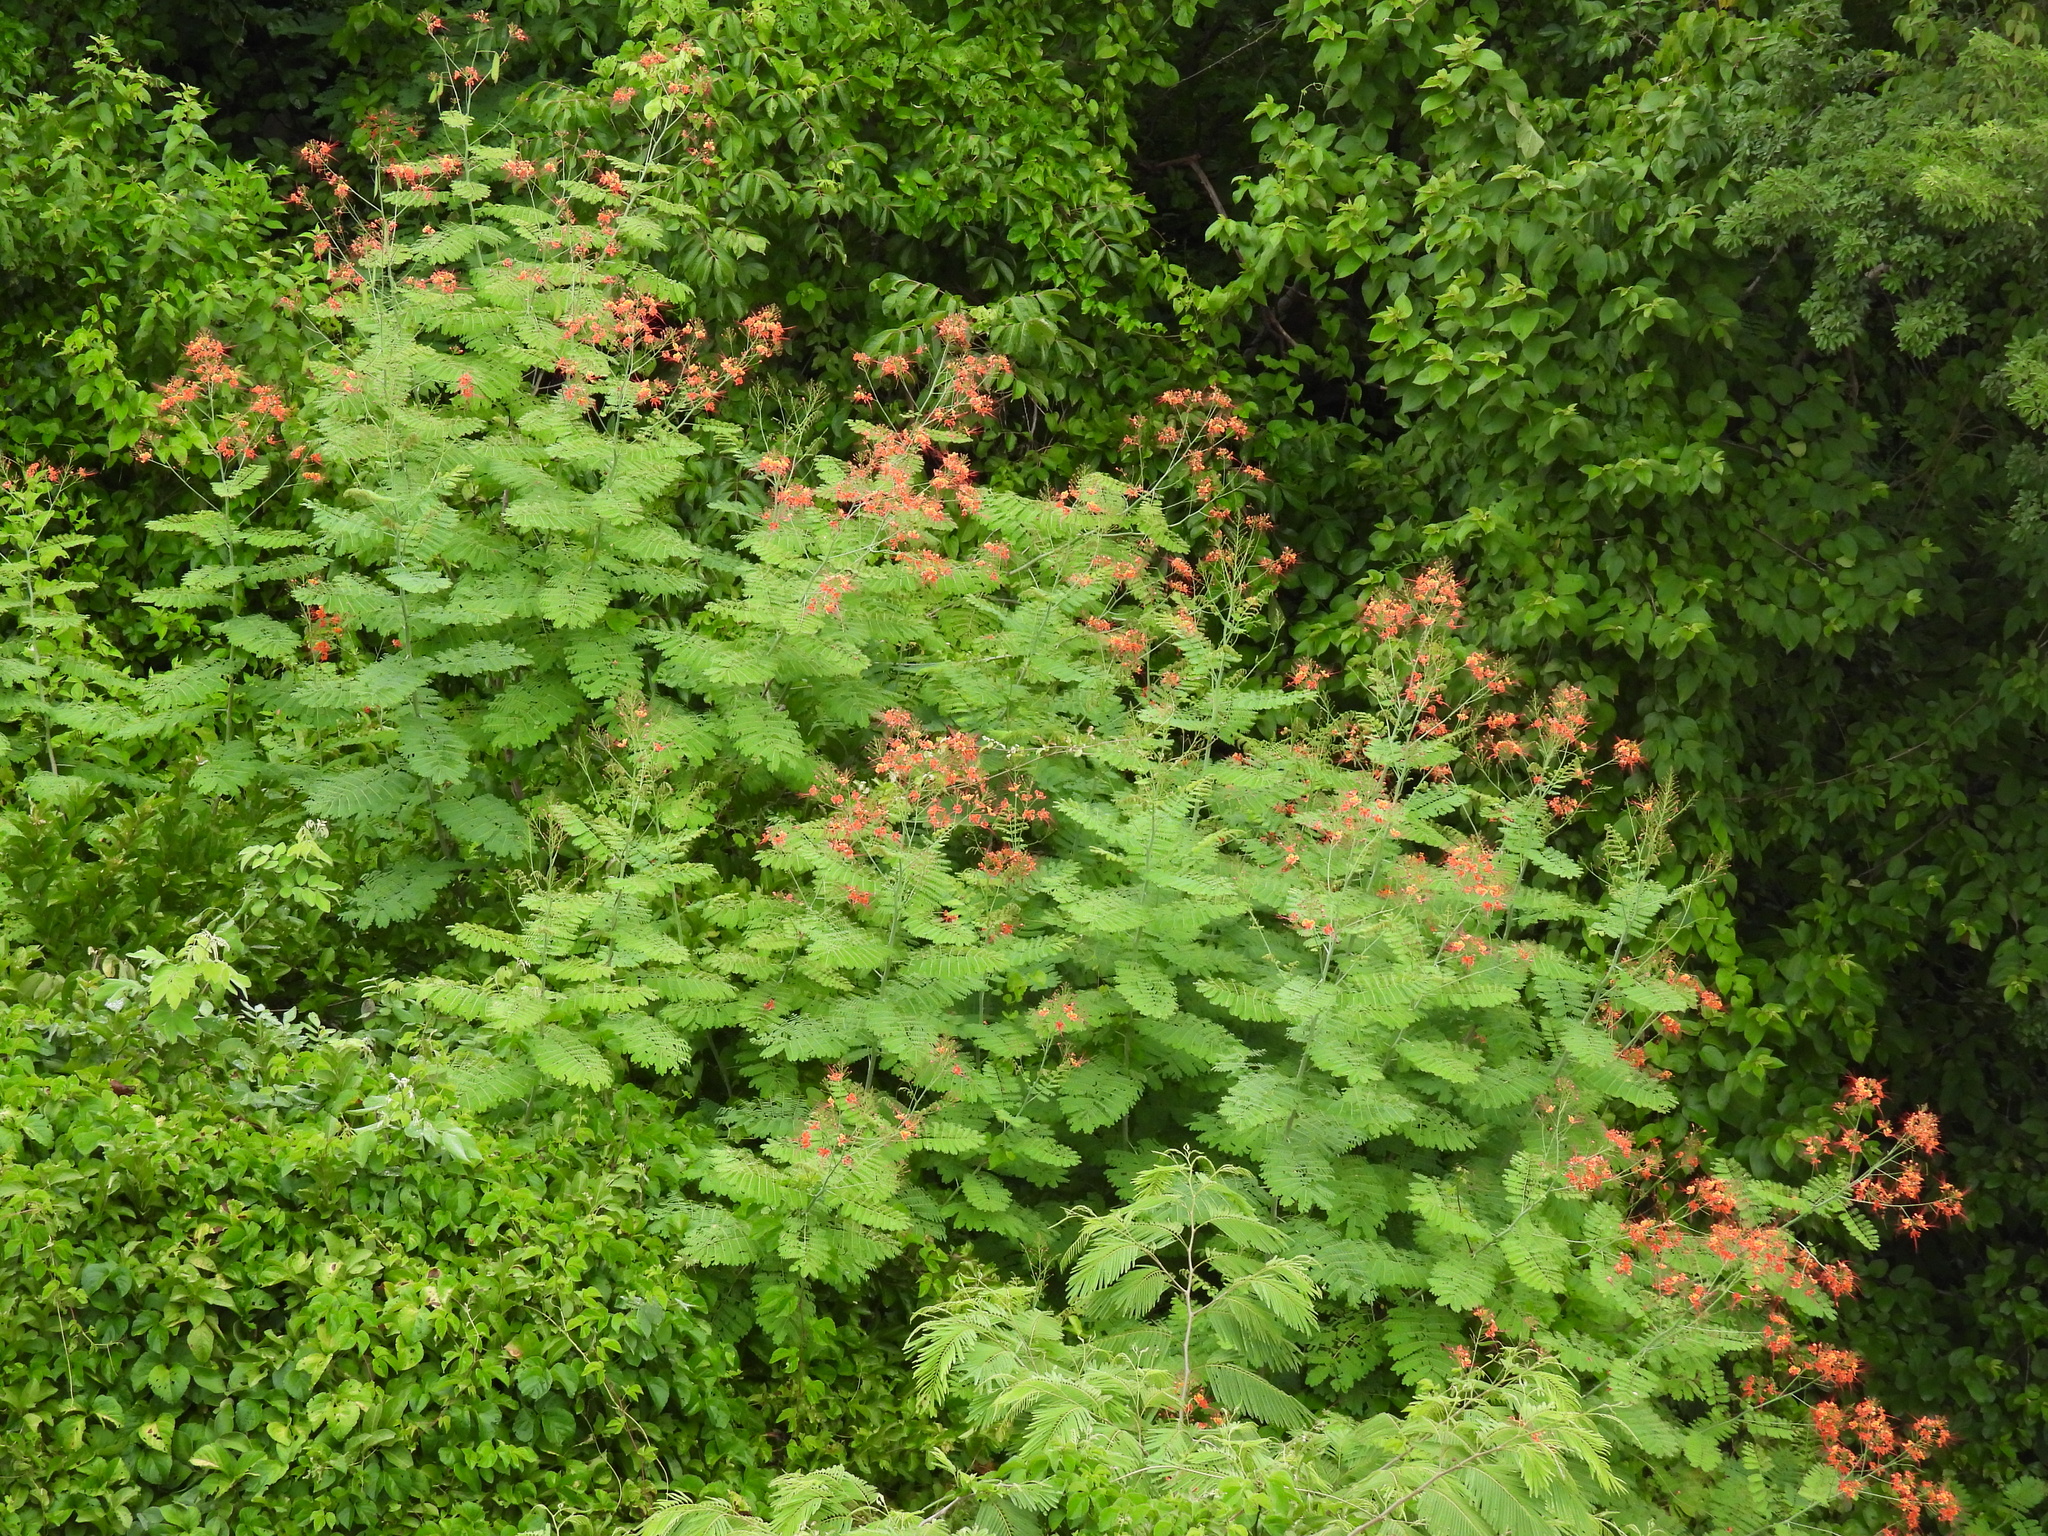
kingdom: Plantae
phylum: Tracheophyta
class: Magnoliopsida
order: Fabales
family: Fabaceae
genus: Caesalpinia
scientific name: Caesalpinia pulcherrima
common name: Pride-of-barbados
